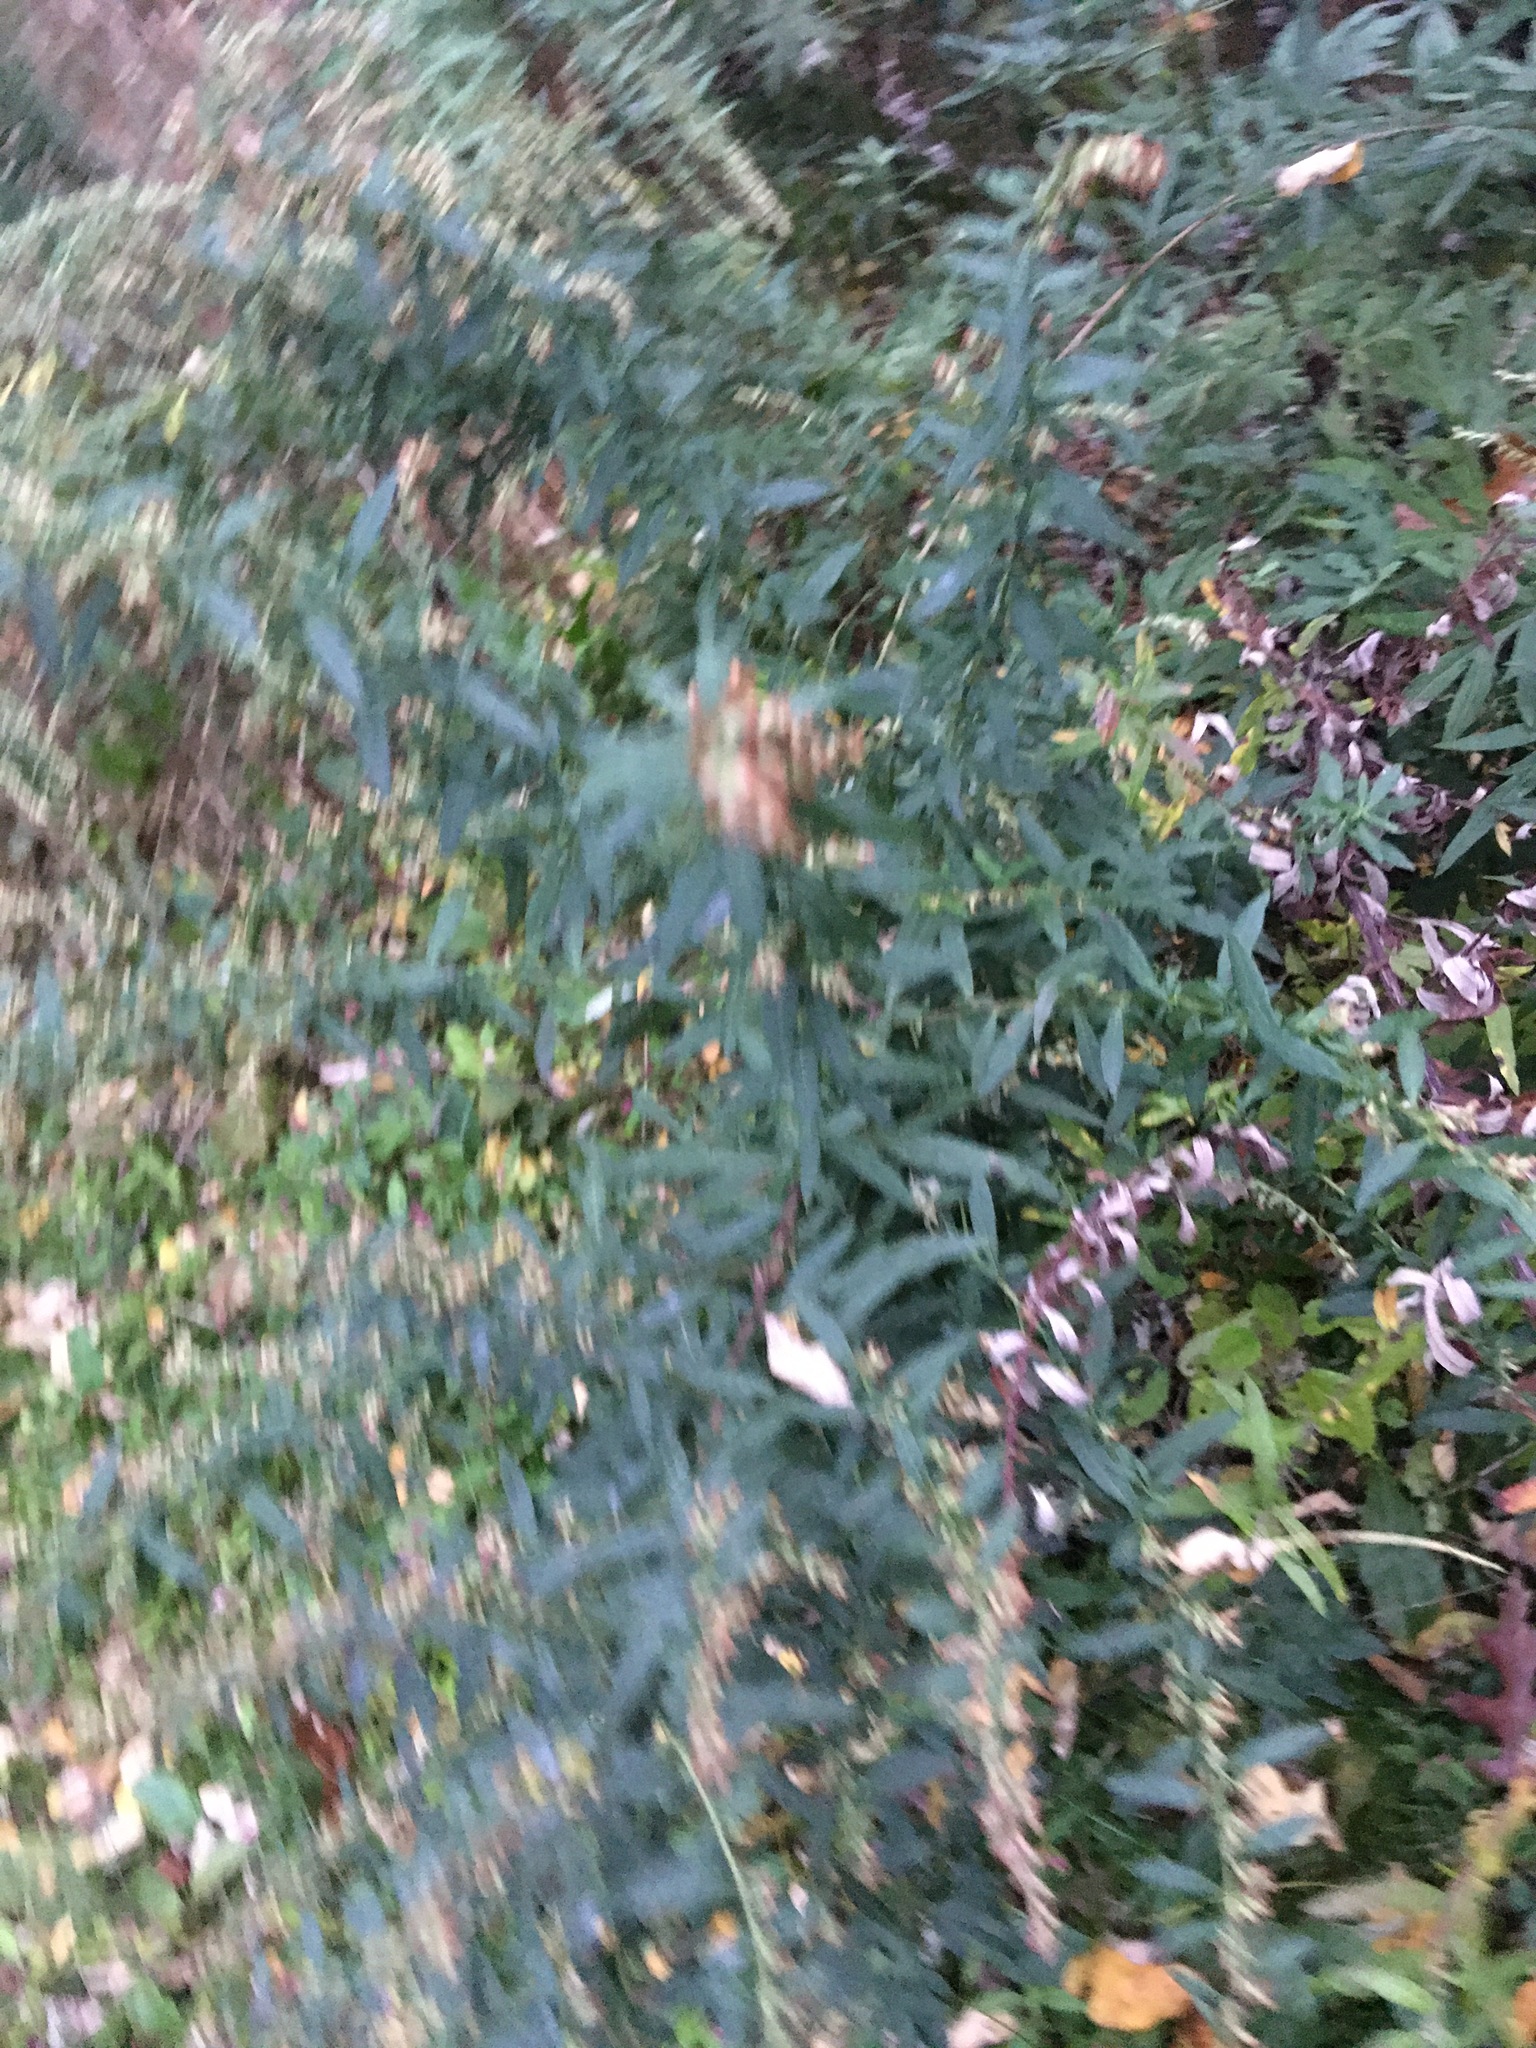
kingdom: Plantae
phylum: Tracheophyta
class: Magnoliopsida
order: Asterales
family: Asteraceae
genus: Artemisia
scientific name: Artemisia vulgaris
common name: Mugwort
